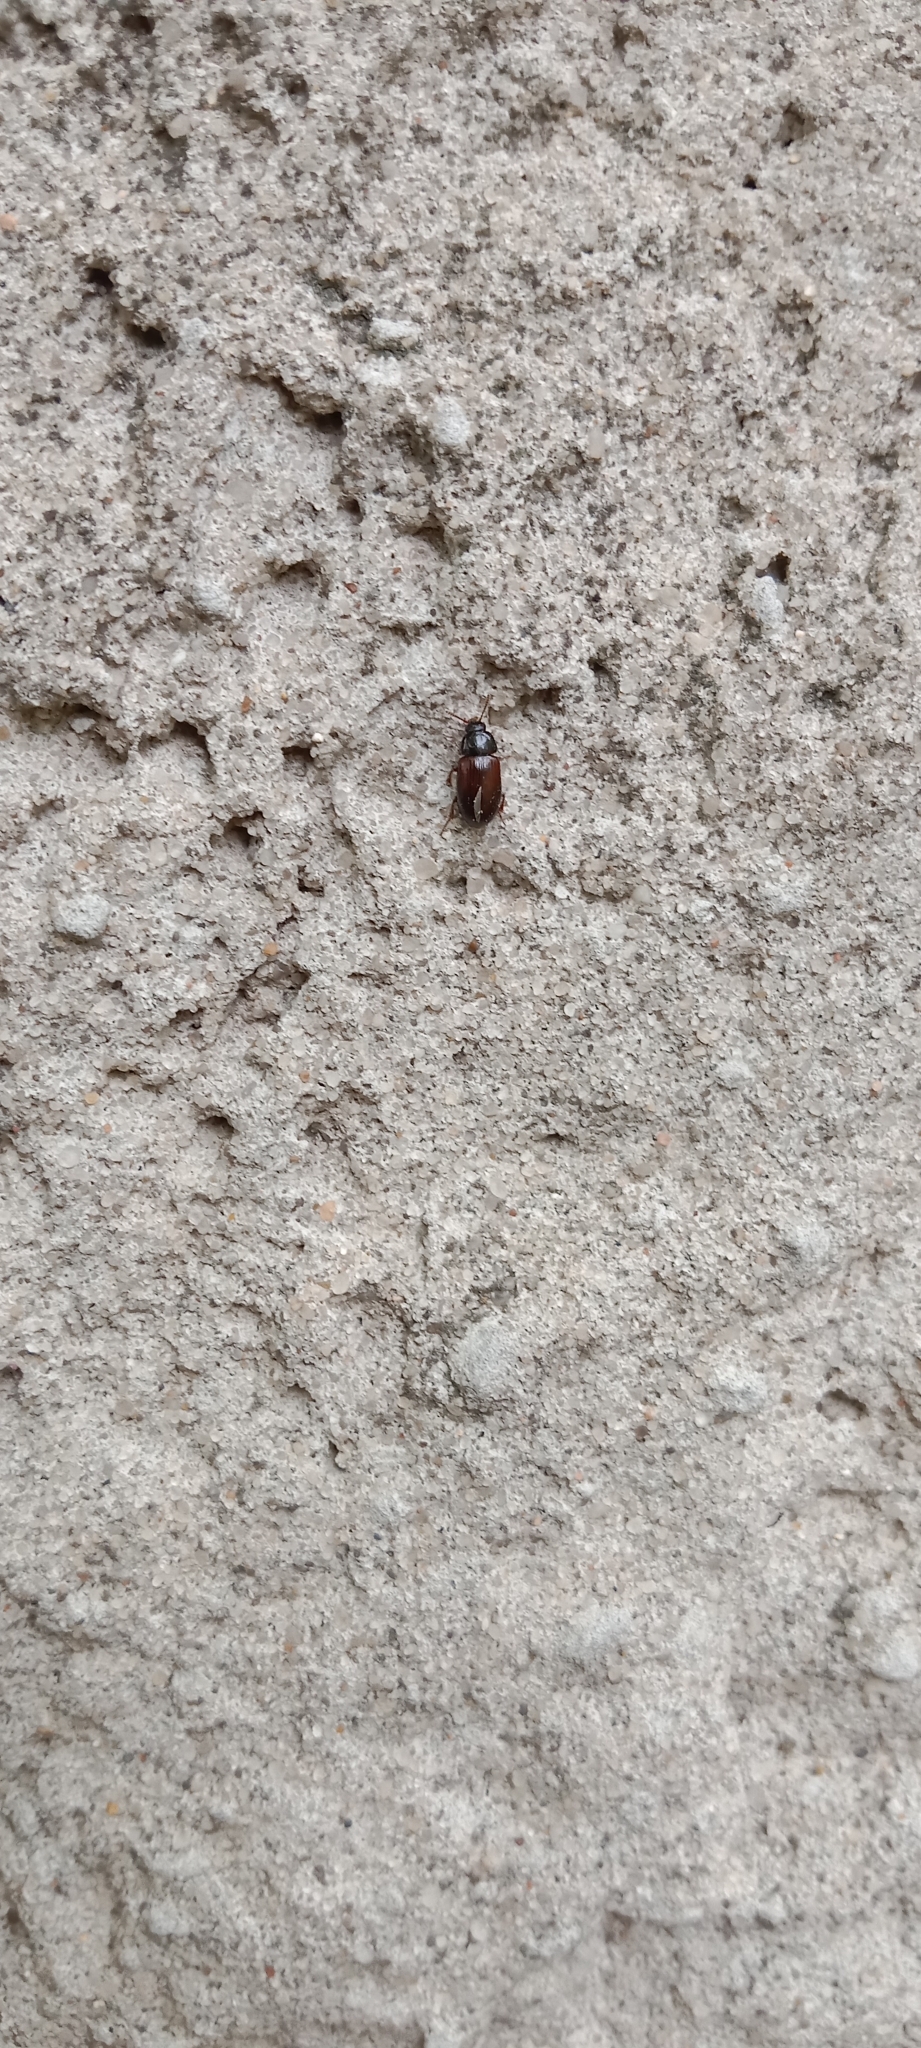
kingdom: Animalia
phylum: Arthropoda
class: Insecta
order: Coleoptera
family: Agyrtidae
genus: Agyrtes
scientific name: Agyrtes castaneus
